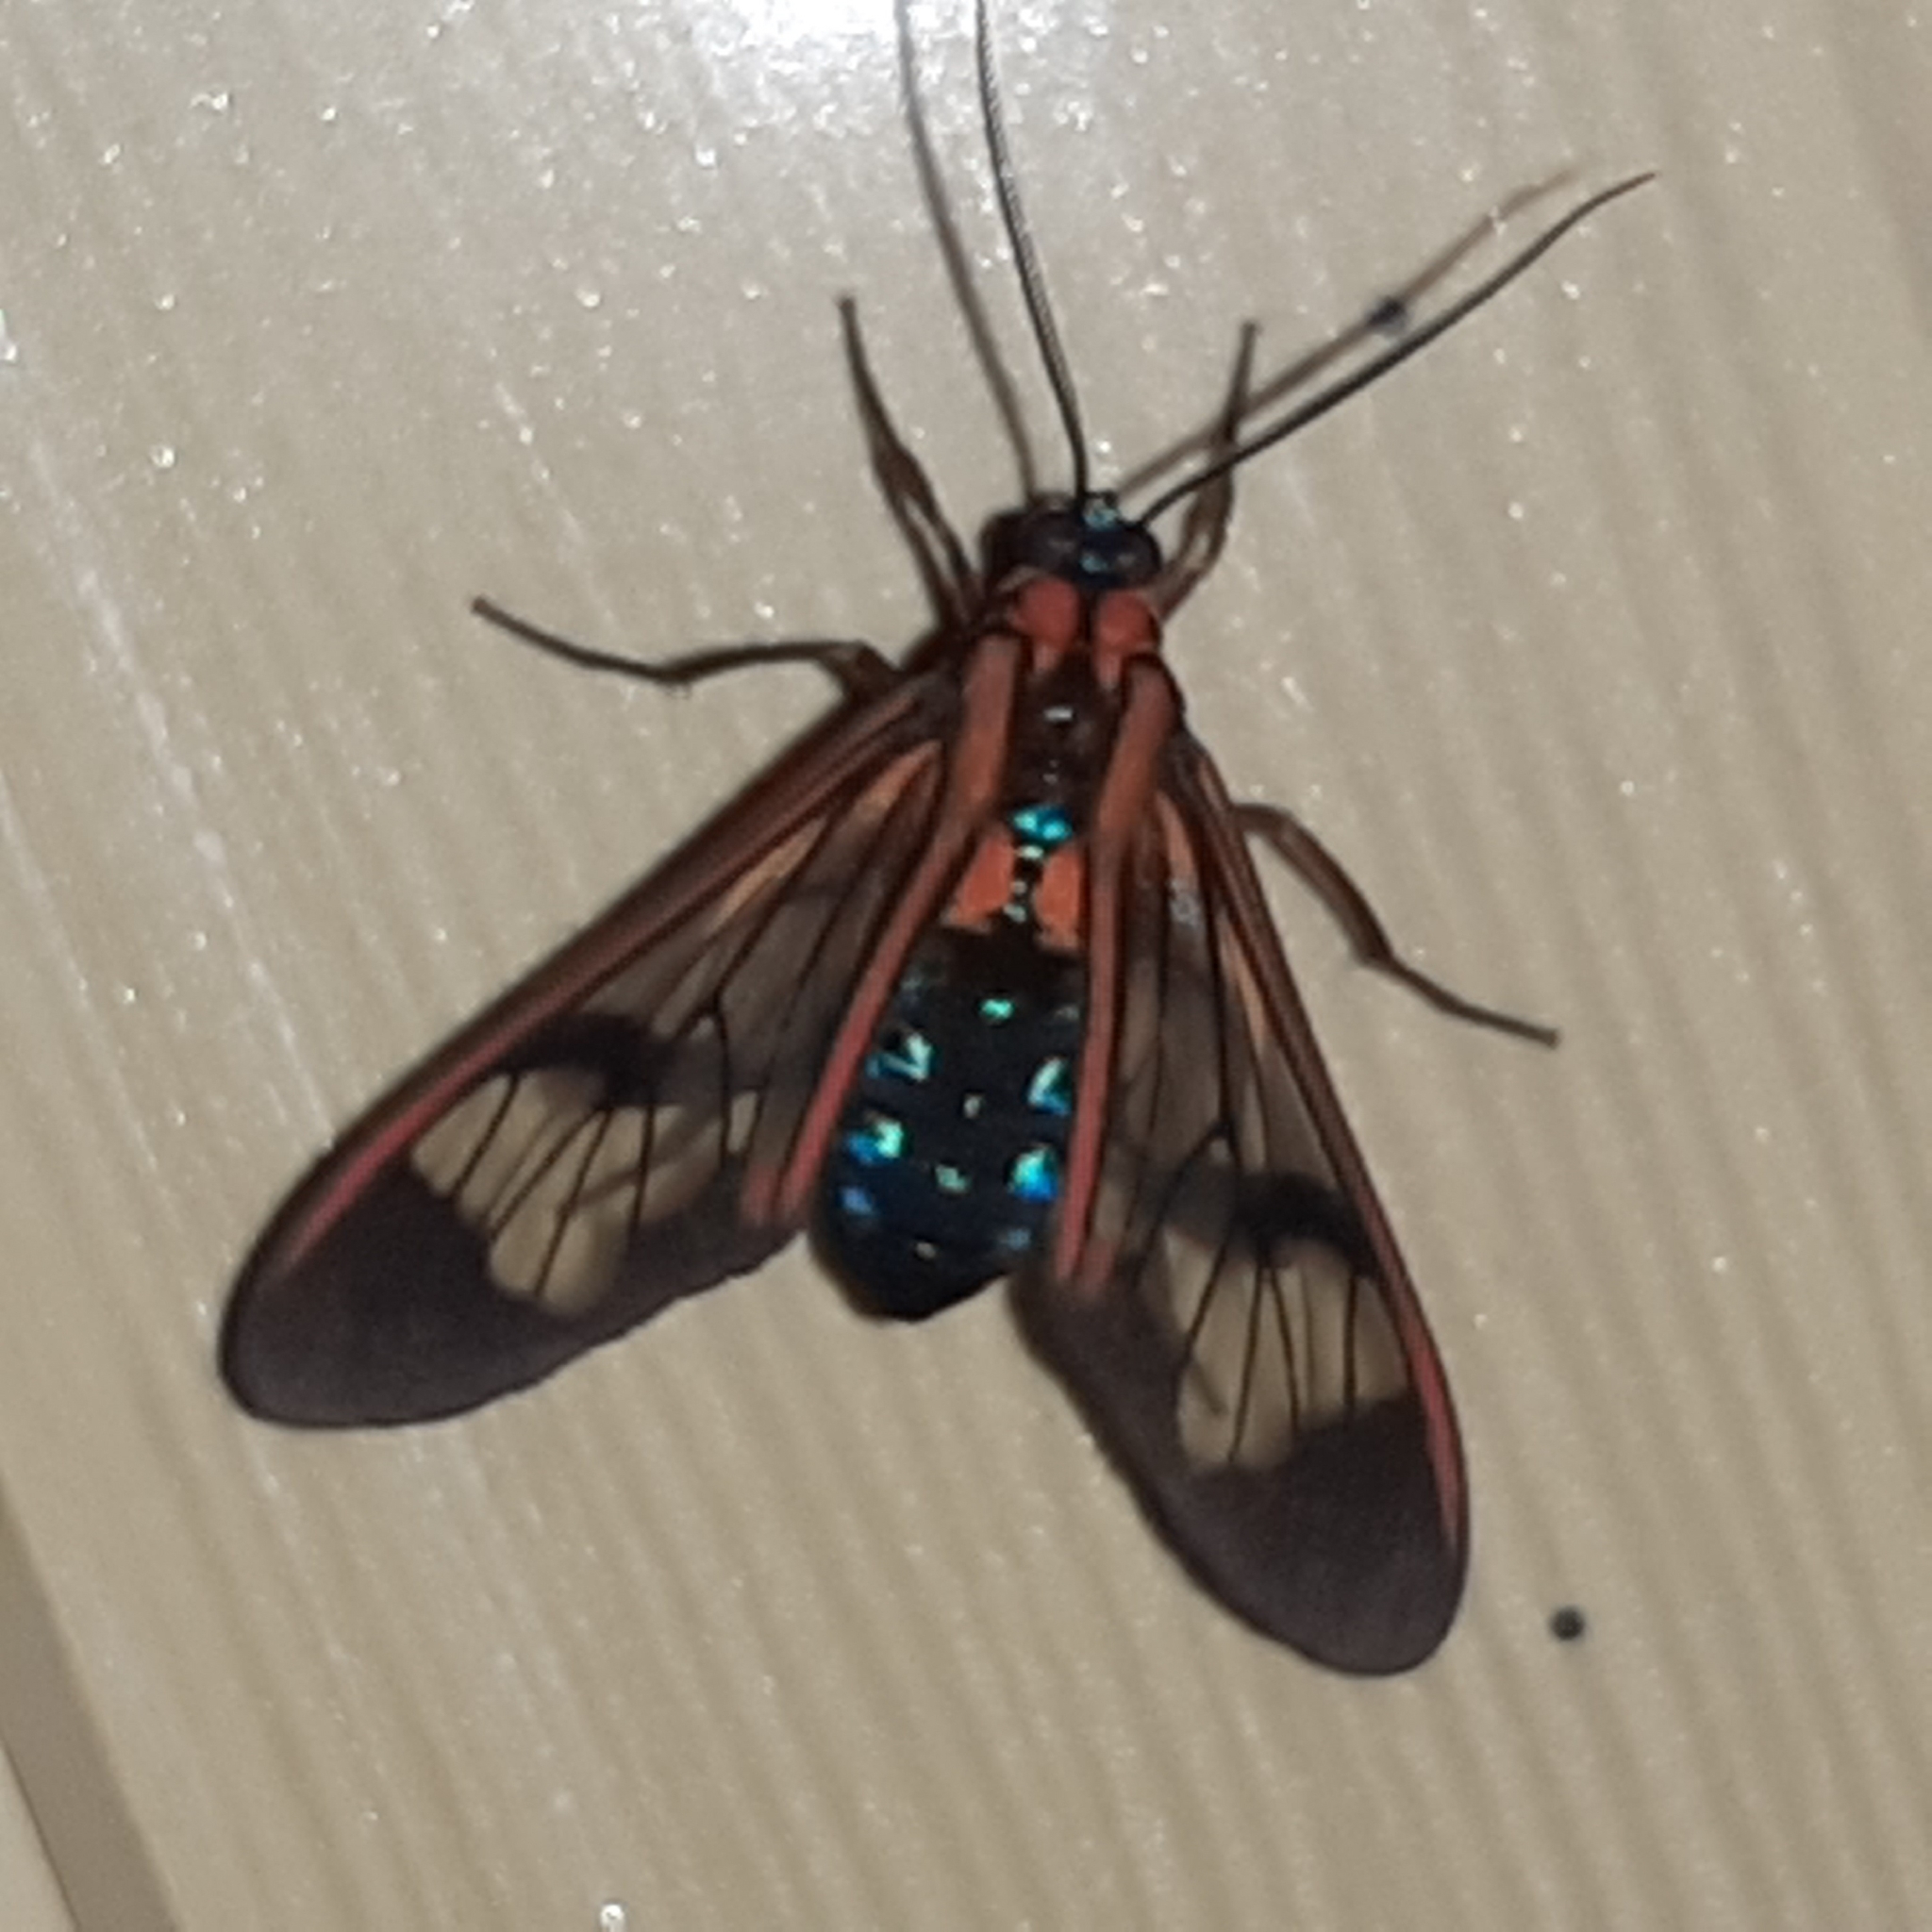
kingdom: Animalia
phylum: Arthropoda
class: Insecta
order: Lepidoptera
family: Erebidae
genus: Lepidoneiva
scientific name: Lepidoneiva caecum
